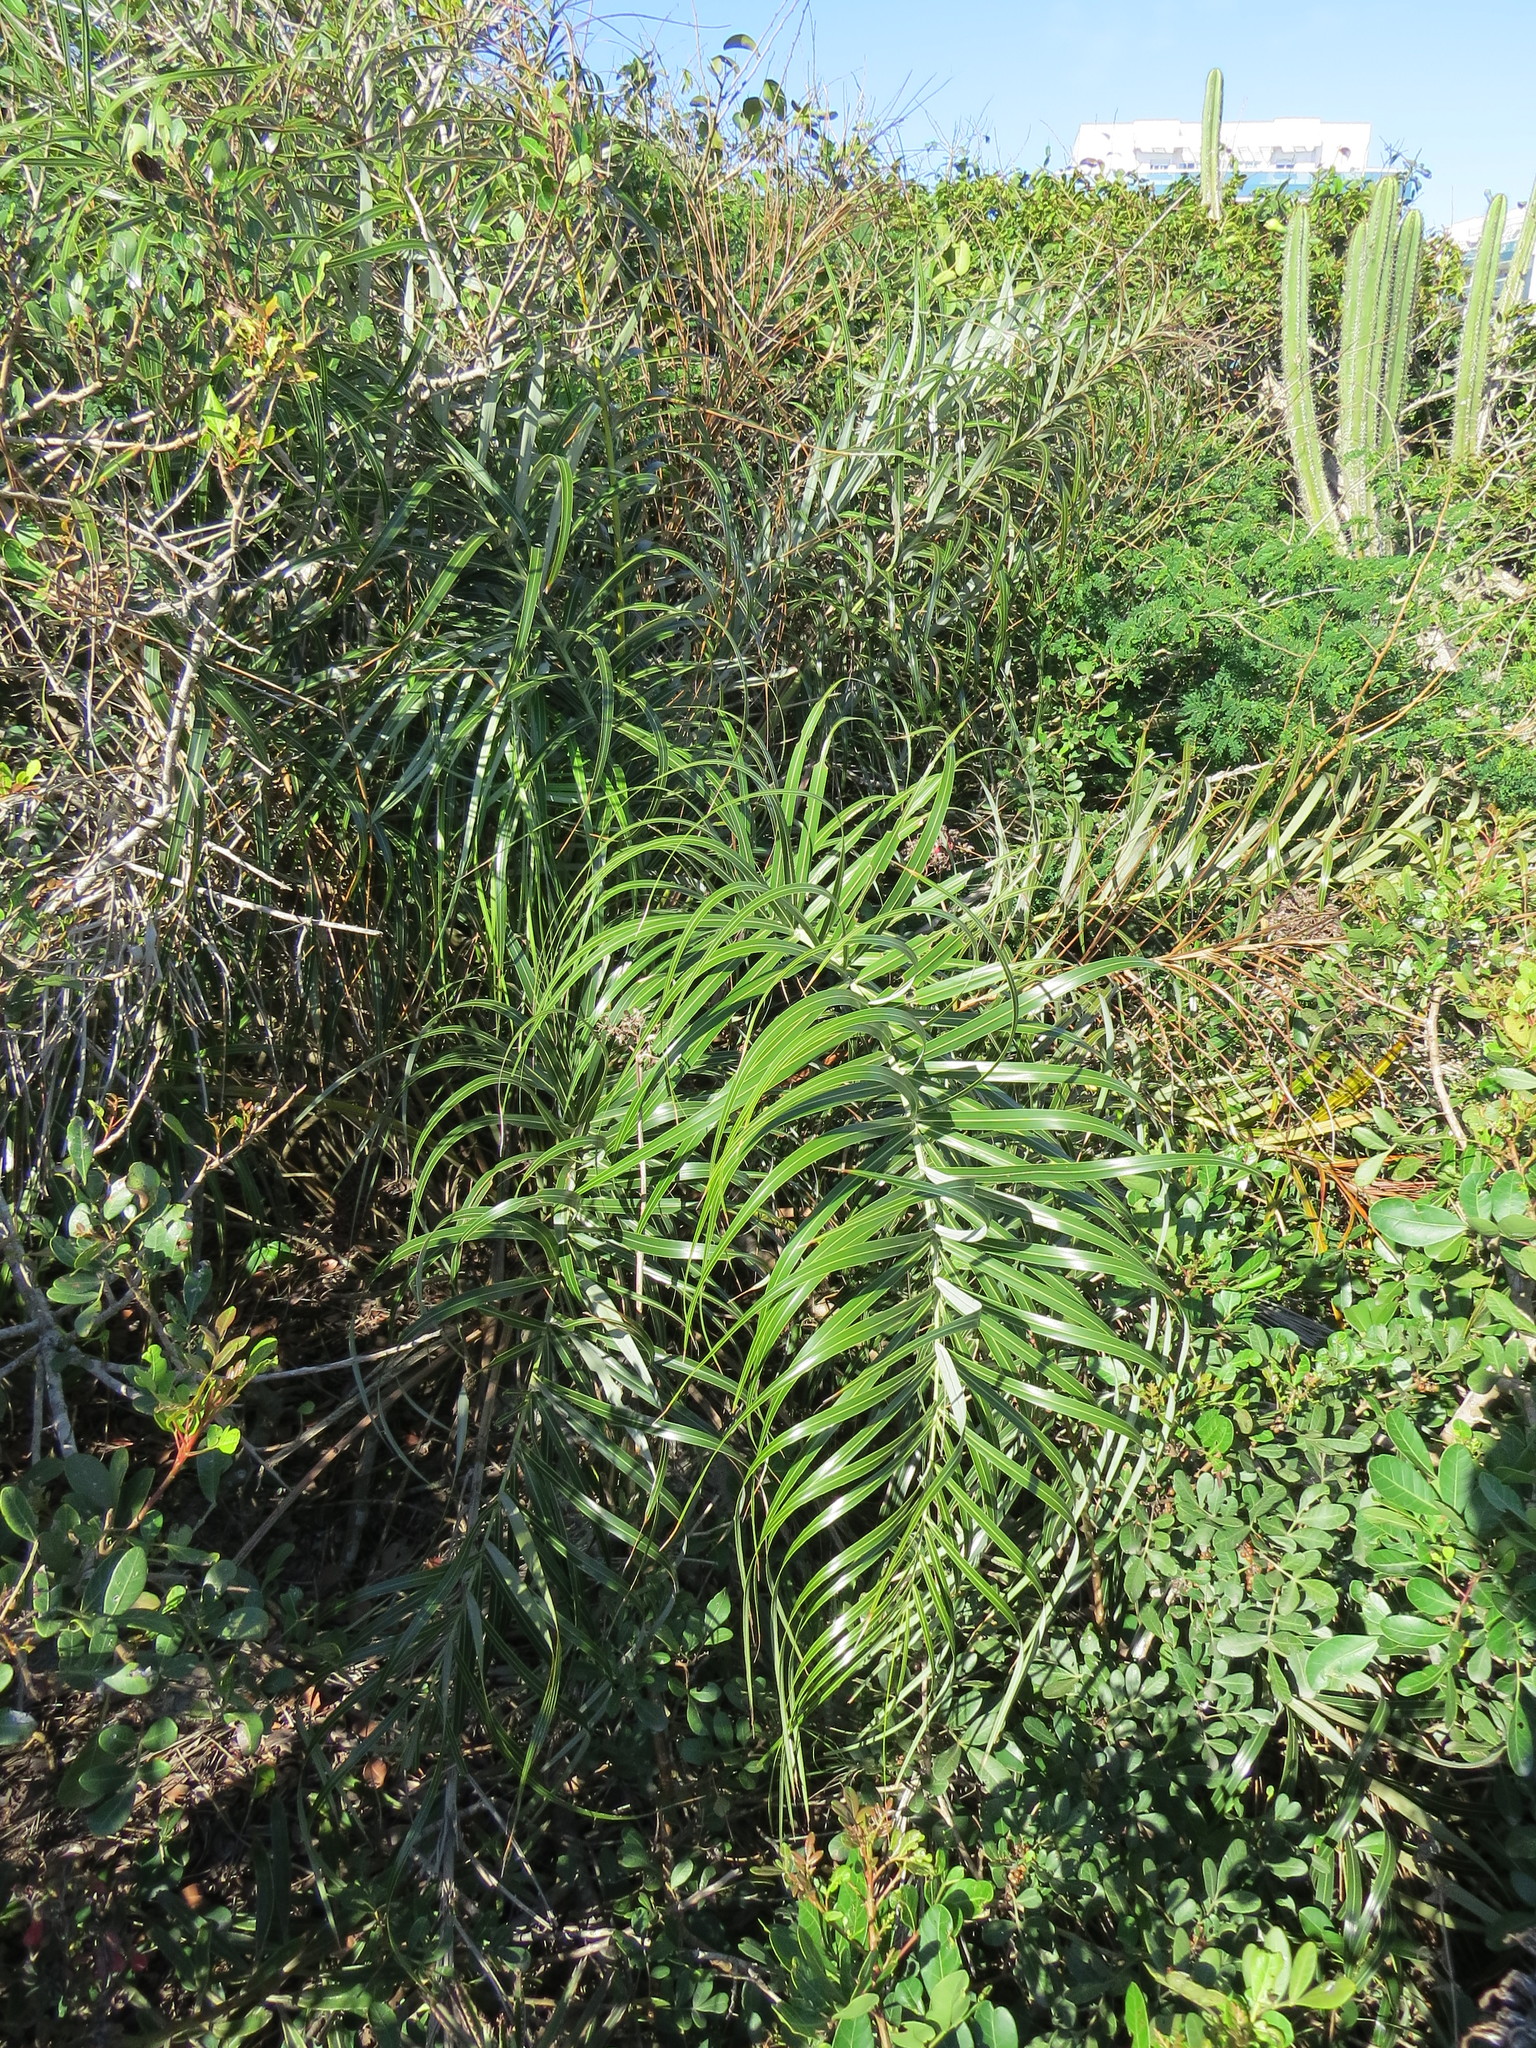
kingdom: Plantae
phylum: Tracheophyta
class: Liliopsida
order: Arecales
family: Arecaceae
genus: Allagoptera
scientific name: Allagoptera arenaria
